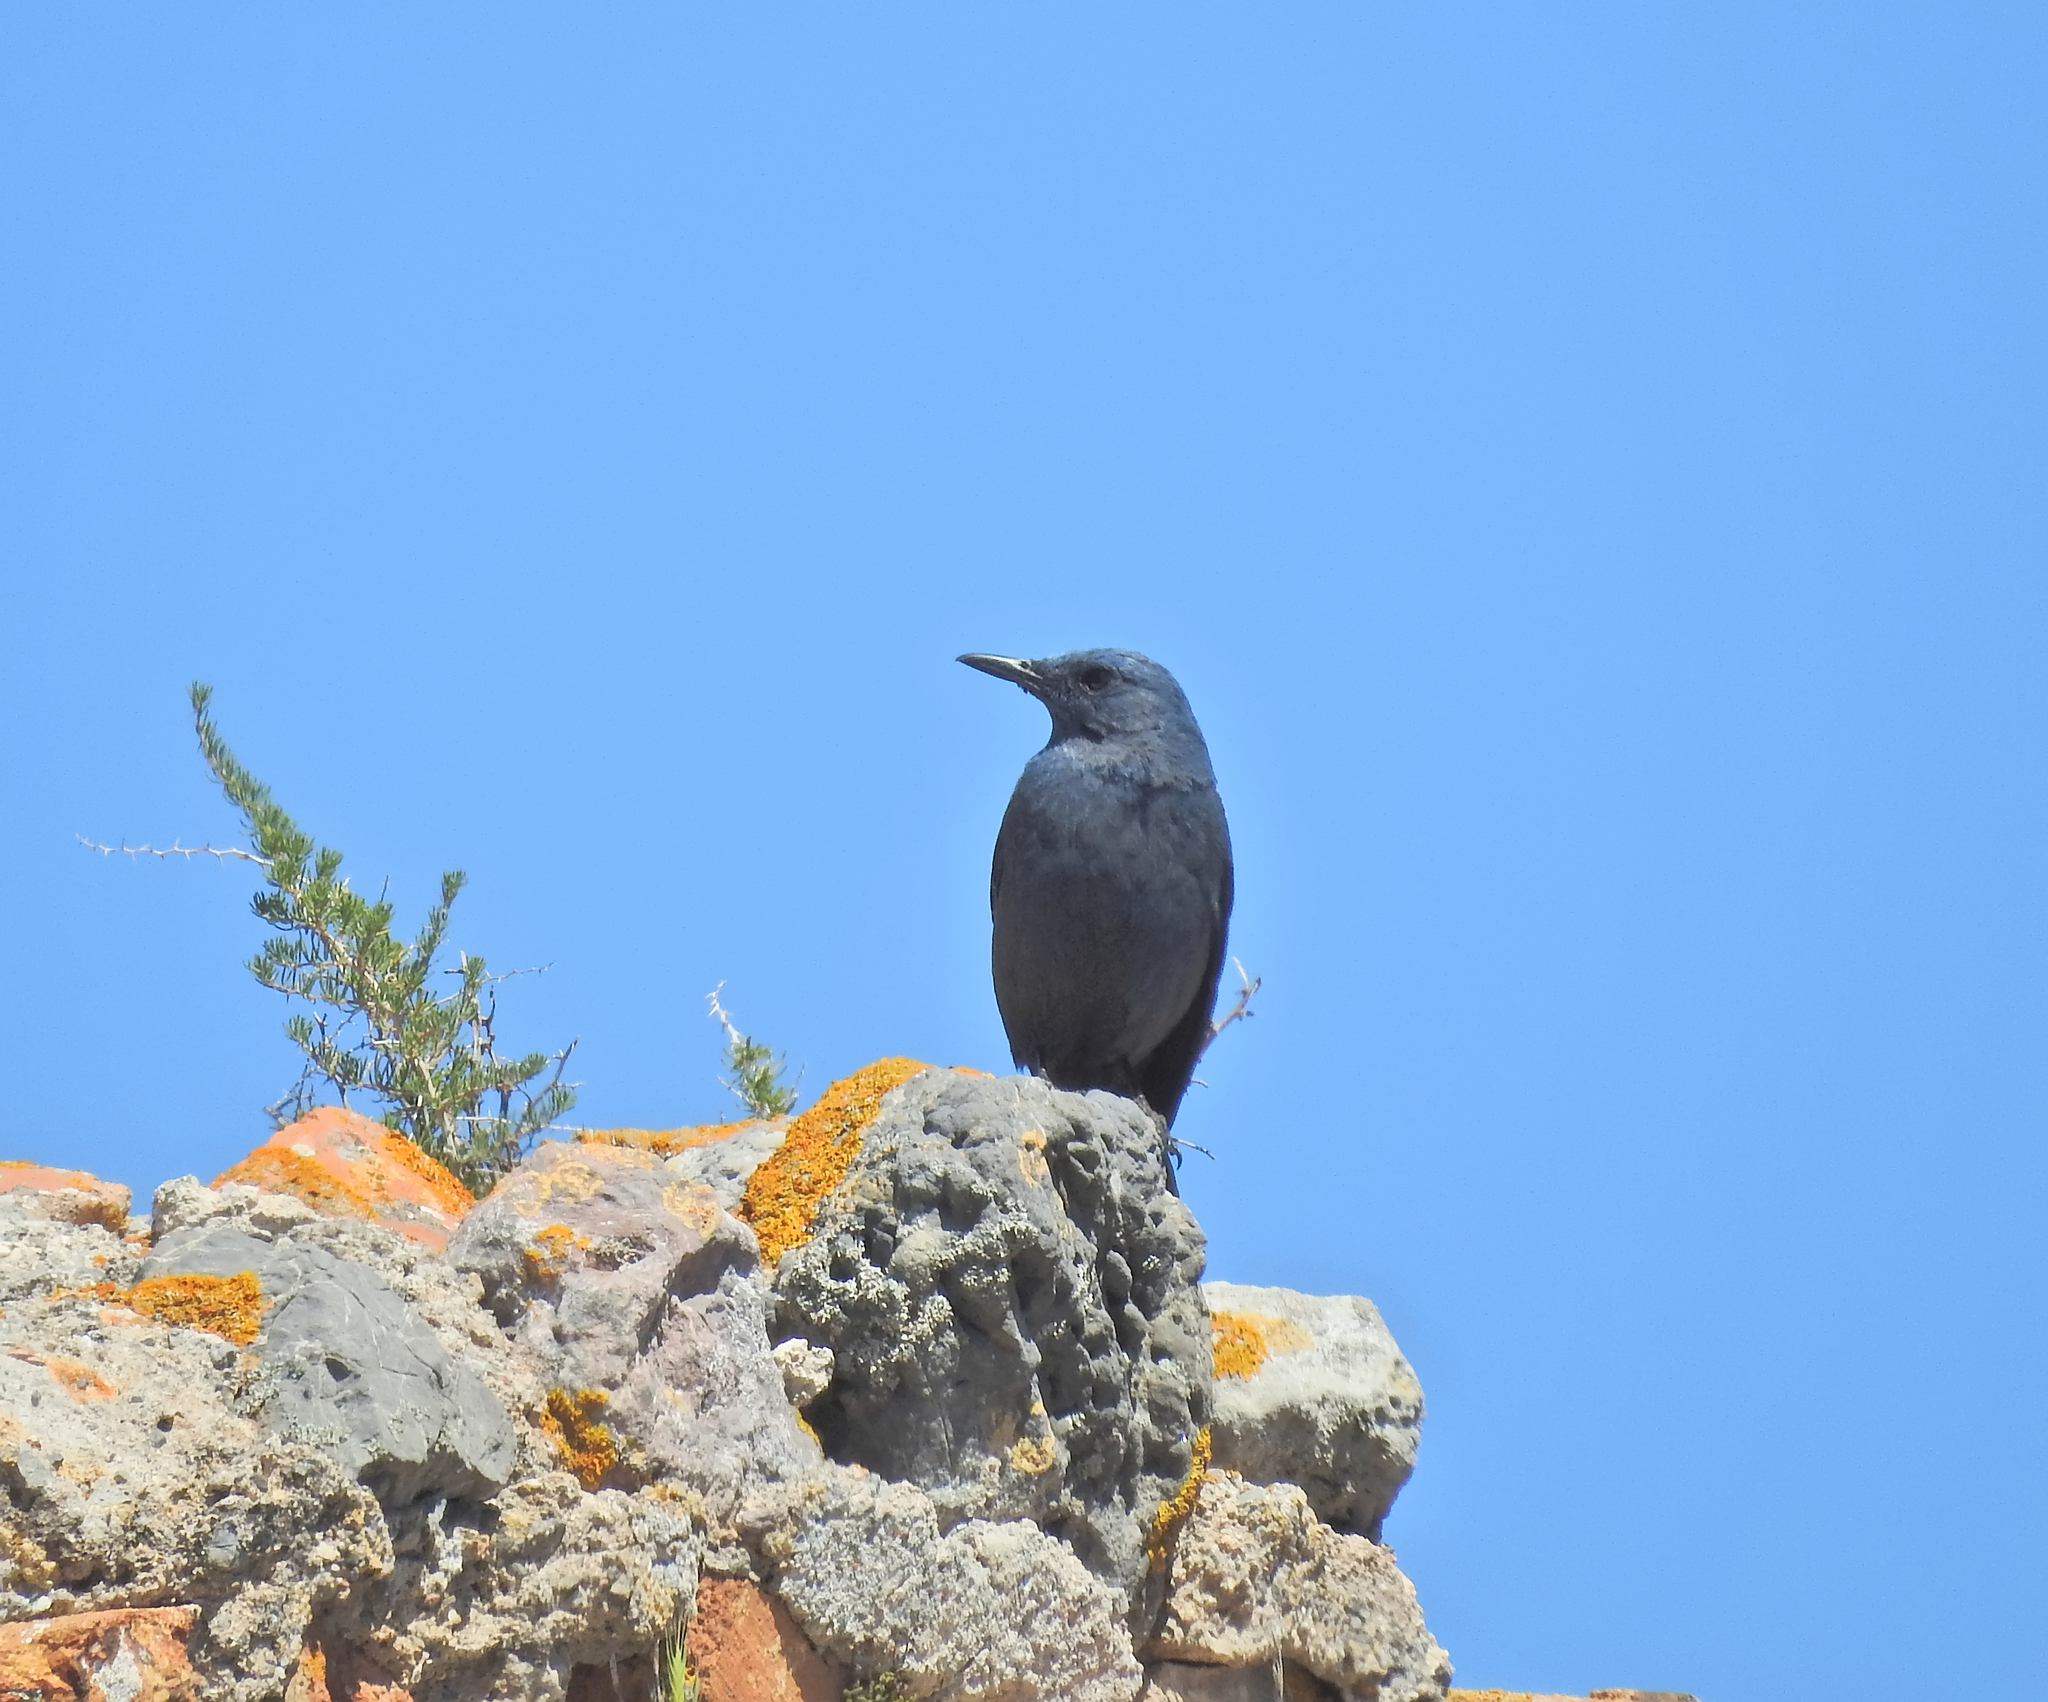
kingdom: Animalia
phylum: Chordata
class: Aves
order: Passeriformes
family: Muscicapidae
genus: Monticola
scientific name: Monticola solitarius
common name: Blue rock thrush
